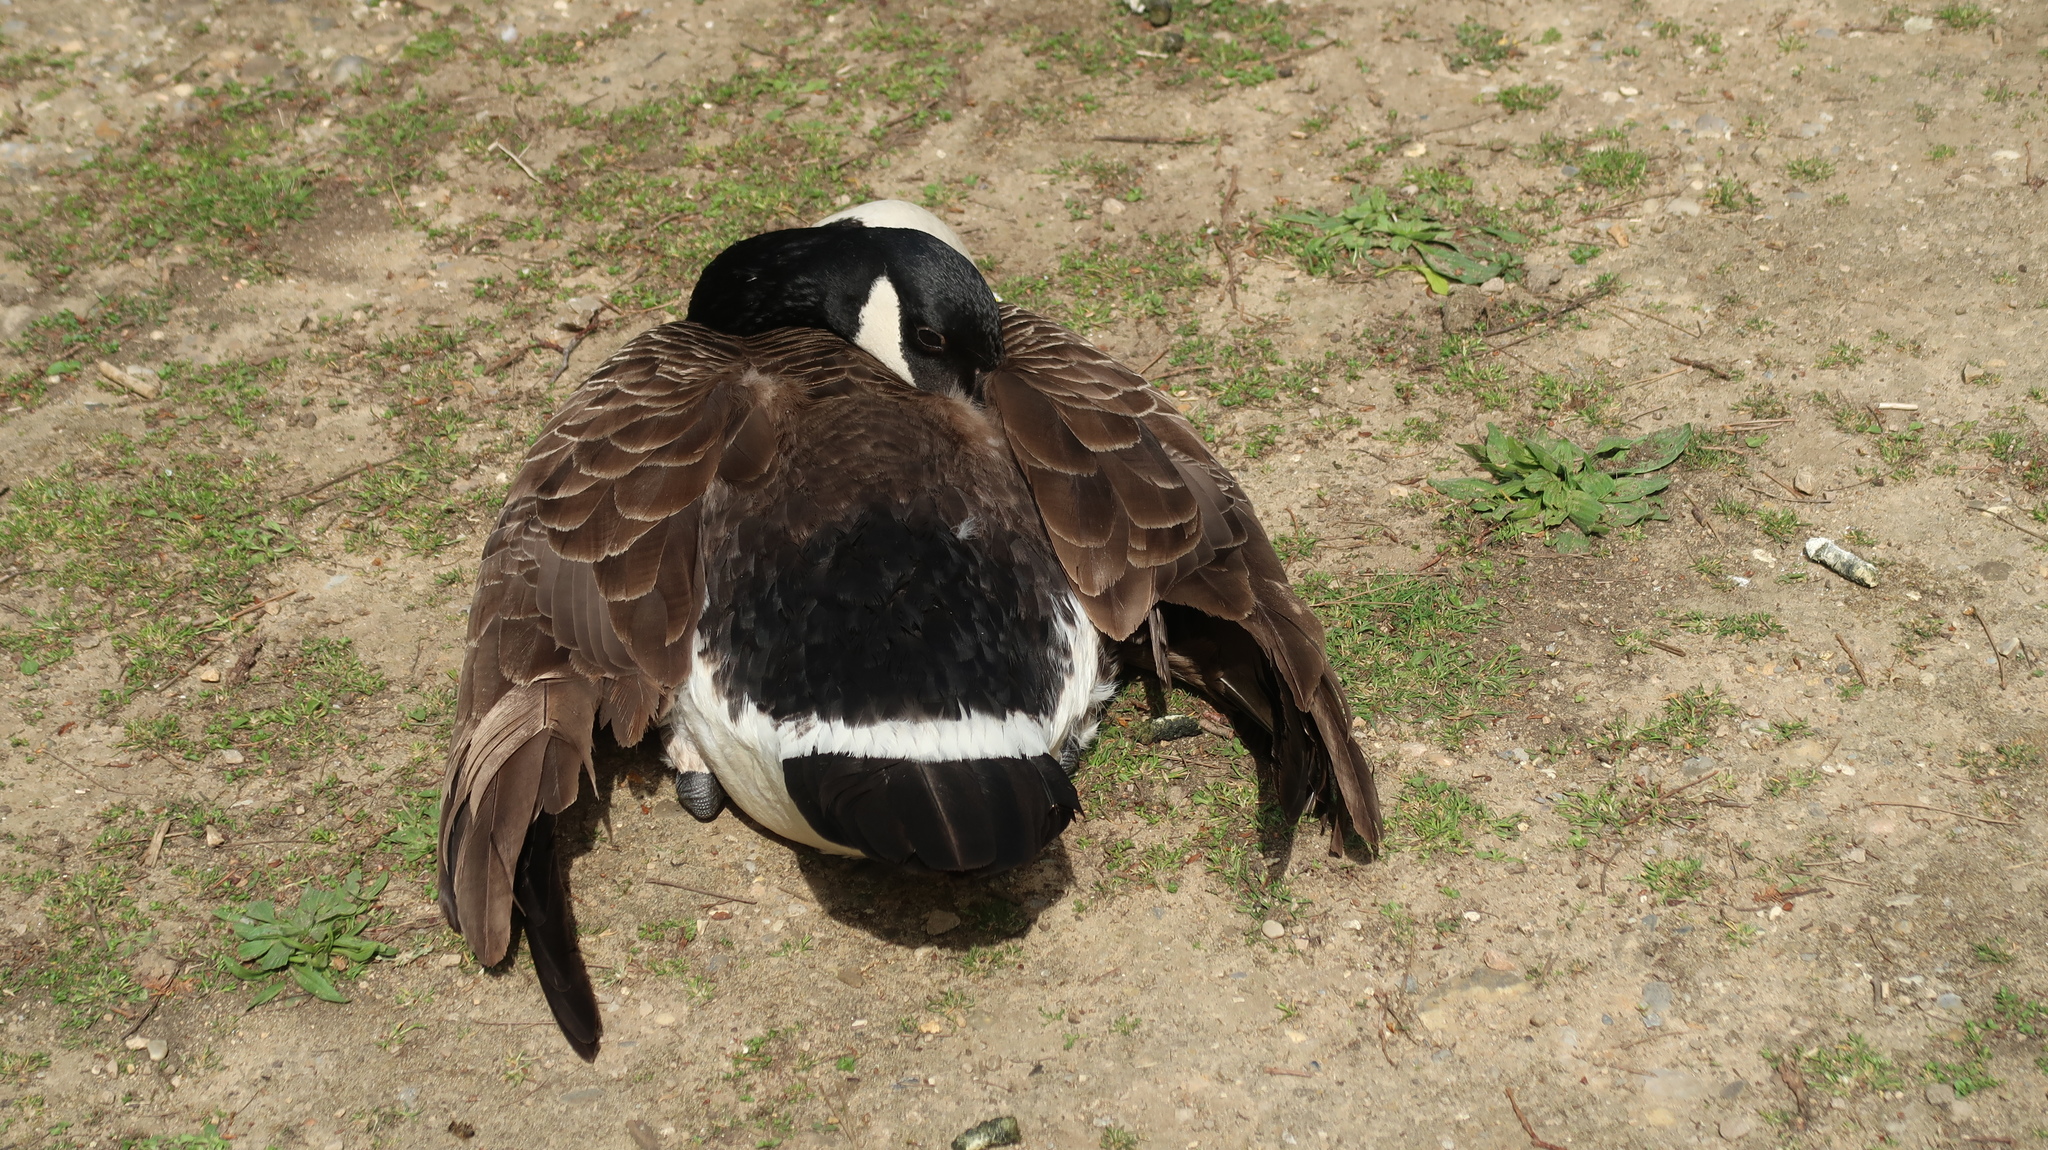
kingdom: Animalia
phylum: Chordata
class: Aves
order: Anseriformes
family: Anatidae
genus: Branta
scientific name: Branta canadensis
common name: Canada goose
